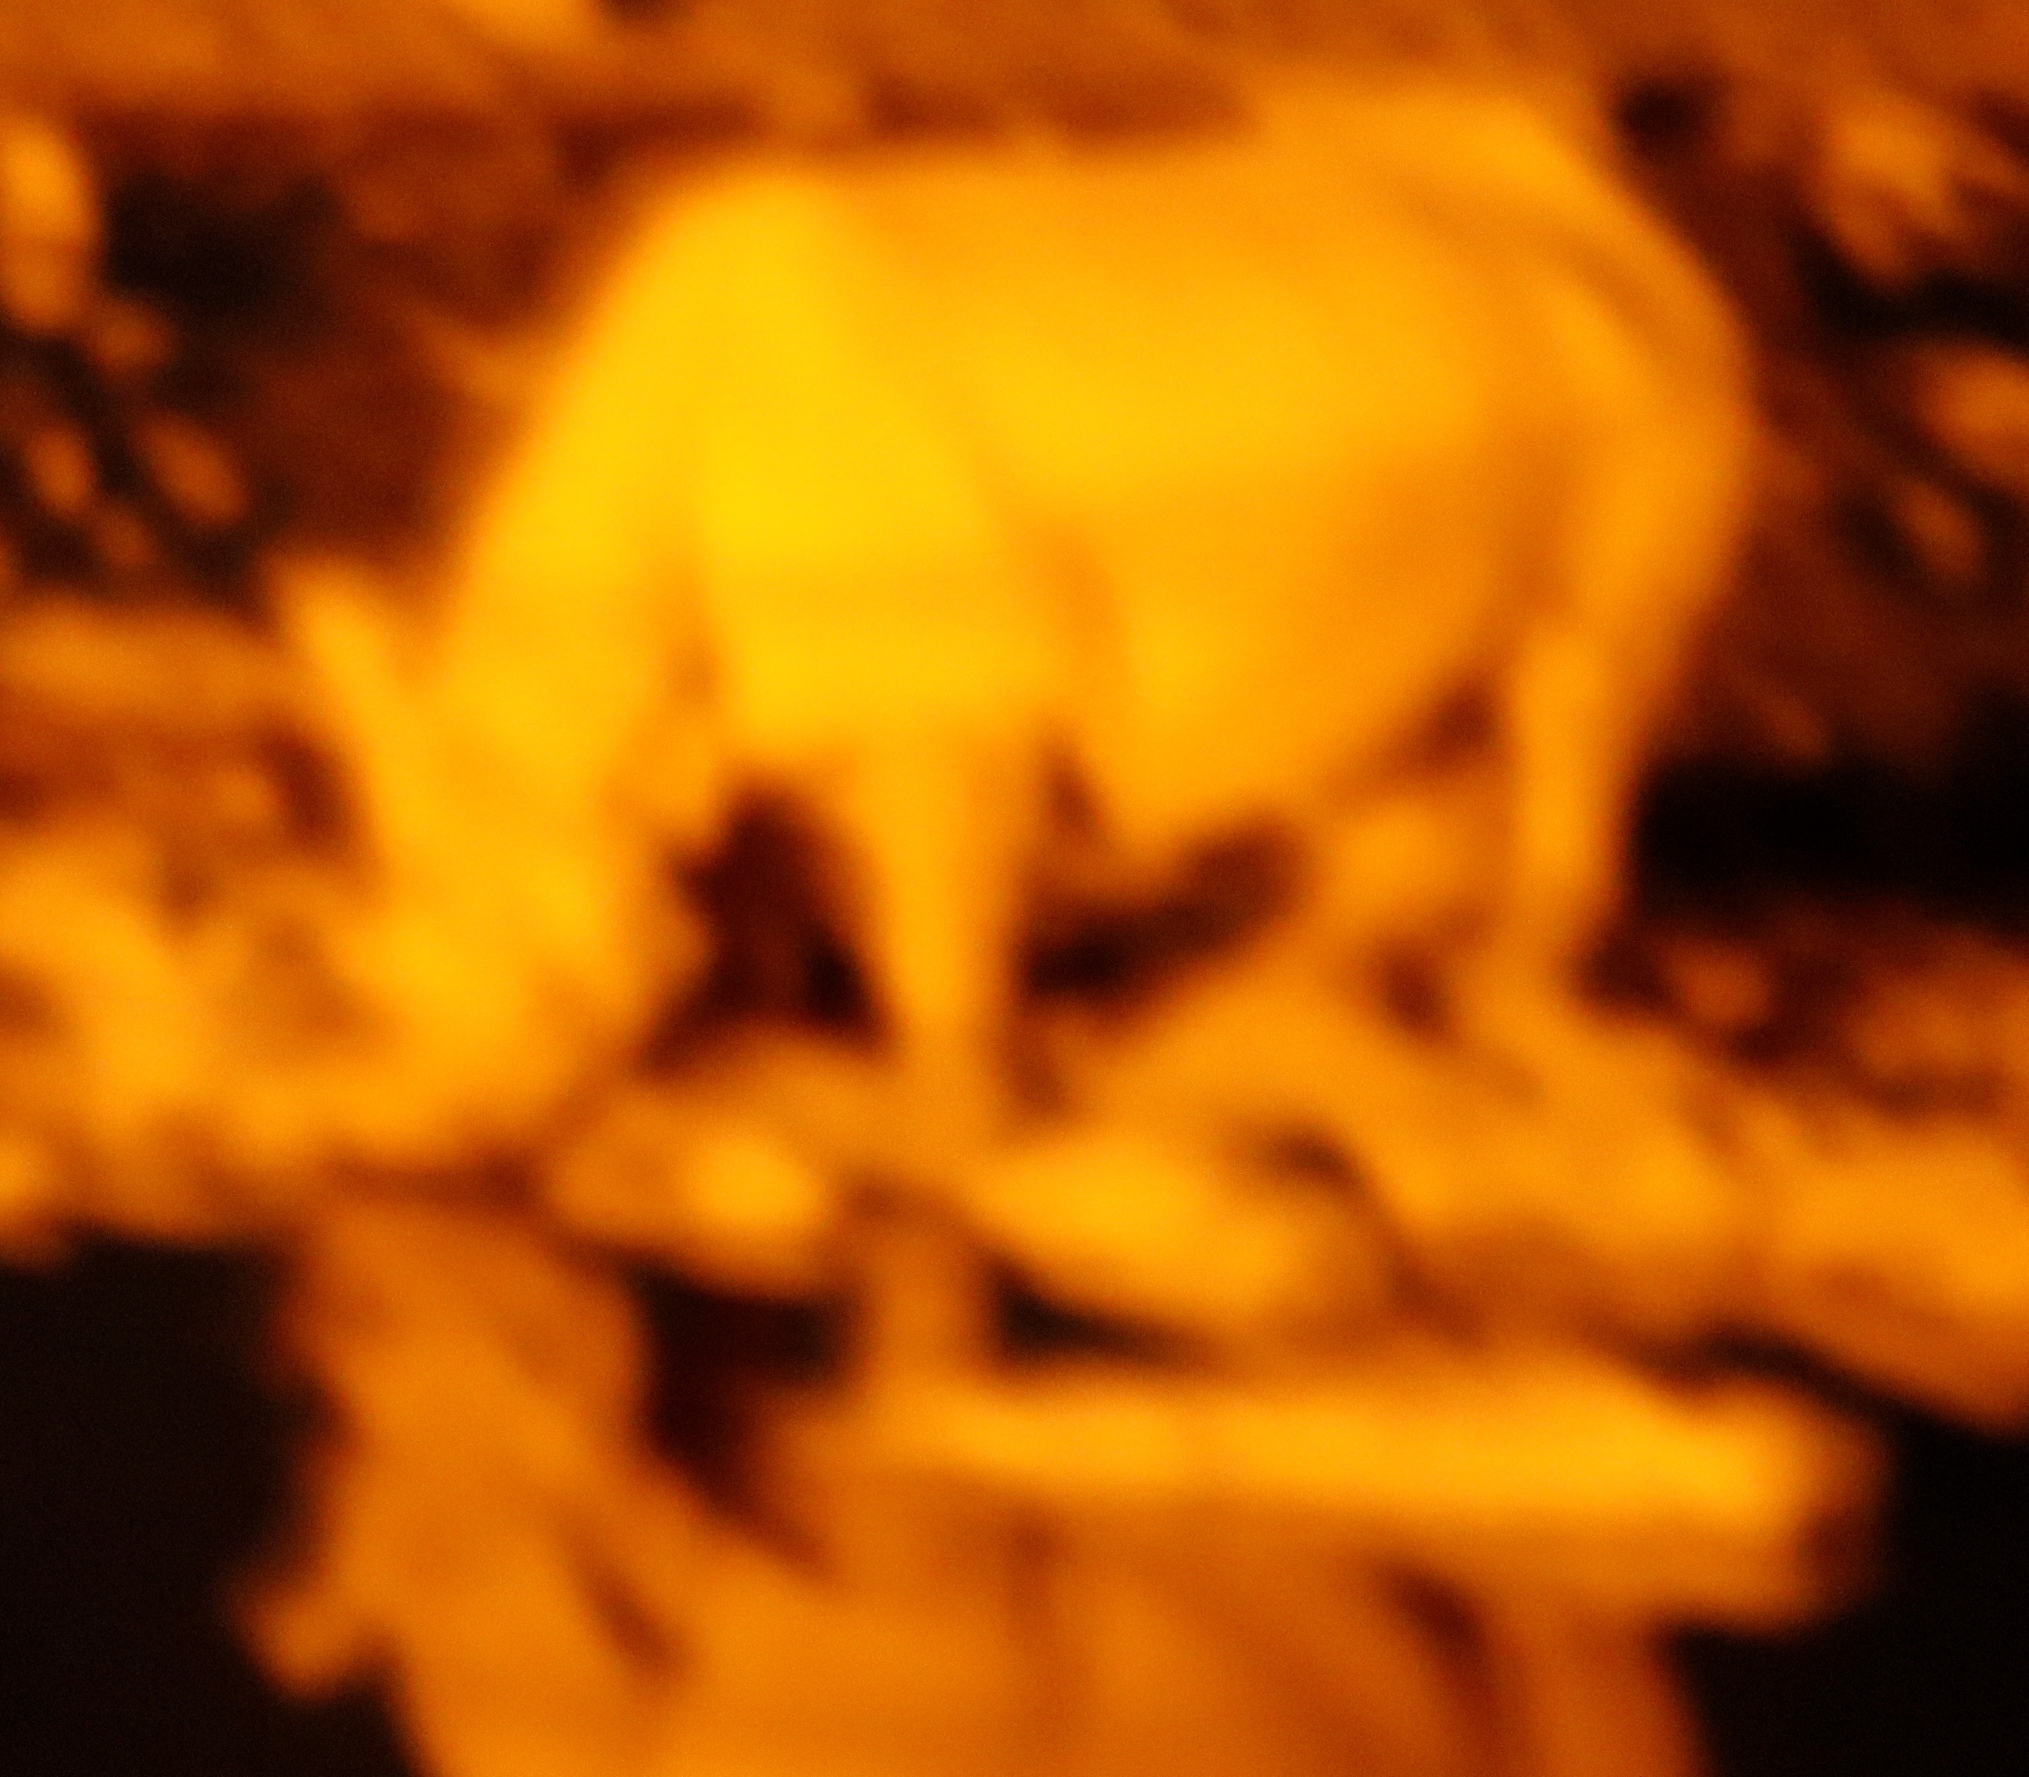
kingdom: Animalia
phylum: Chordata
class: Mammalia
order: Perissodactyla
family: Rhinocerotidae
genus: Diceros
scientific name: Diceros bicornis
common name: Black rhinoceros
